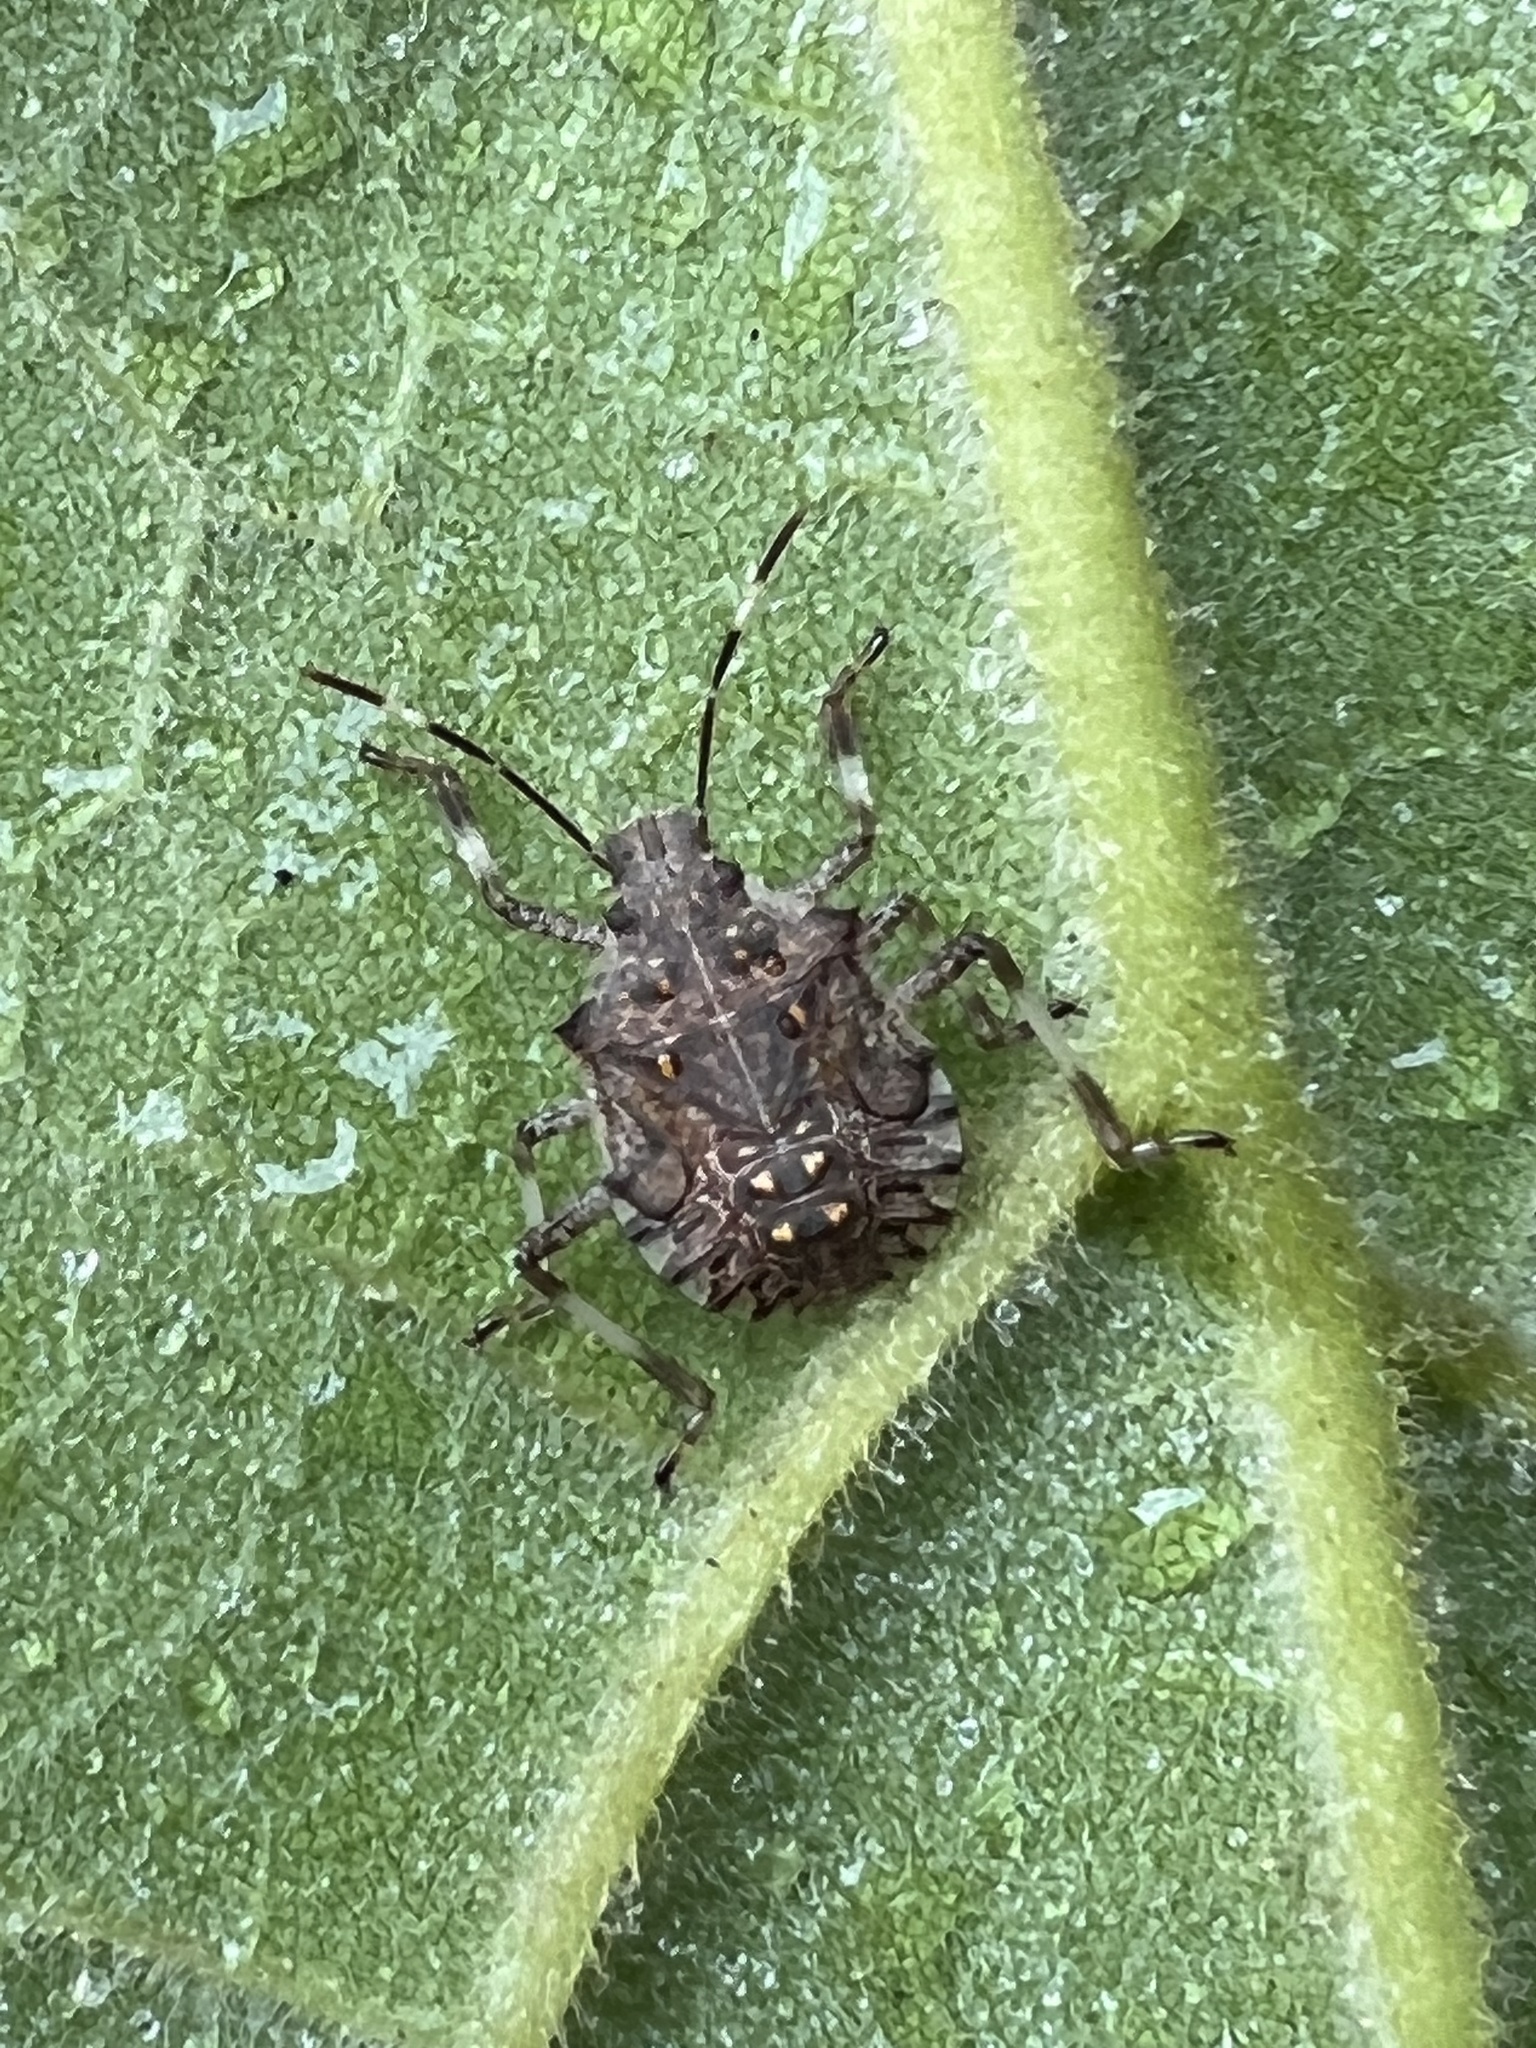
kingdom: Animalia
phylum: Arthropoda
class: Insecta
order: Hemiptera
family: Pentatomidae
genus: Halyomorpha
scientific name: Halyomorpha halys
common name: Brown marmorated stink bug
